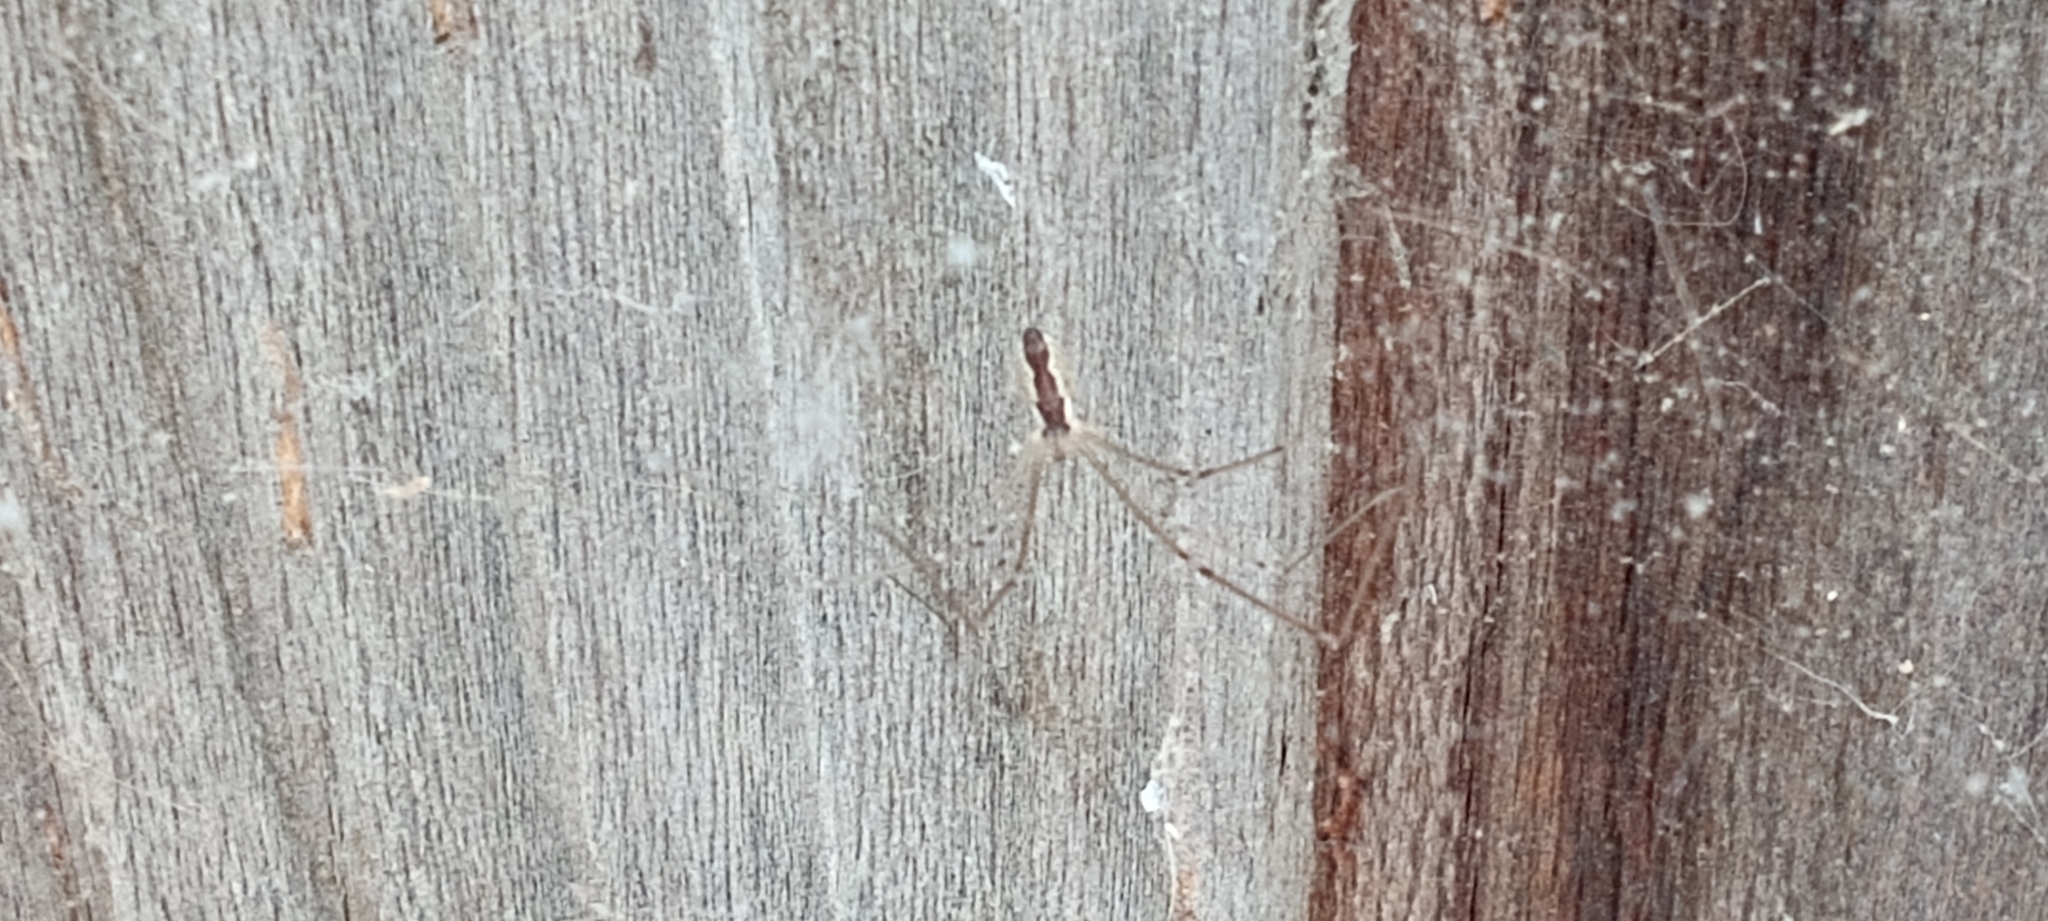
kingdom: Animalia
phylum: Arthropoda
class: Arachnida
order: Araneae
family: Pholcidae
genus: Holocnemus
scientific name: Holocnemus pluchei
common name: Marbled cellar spider
